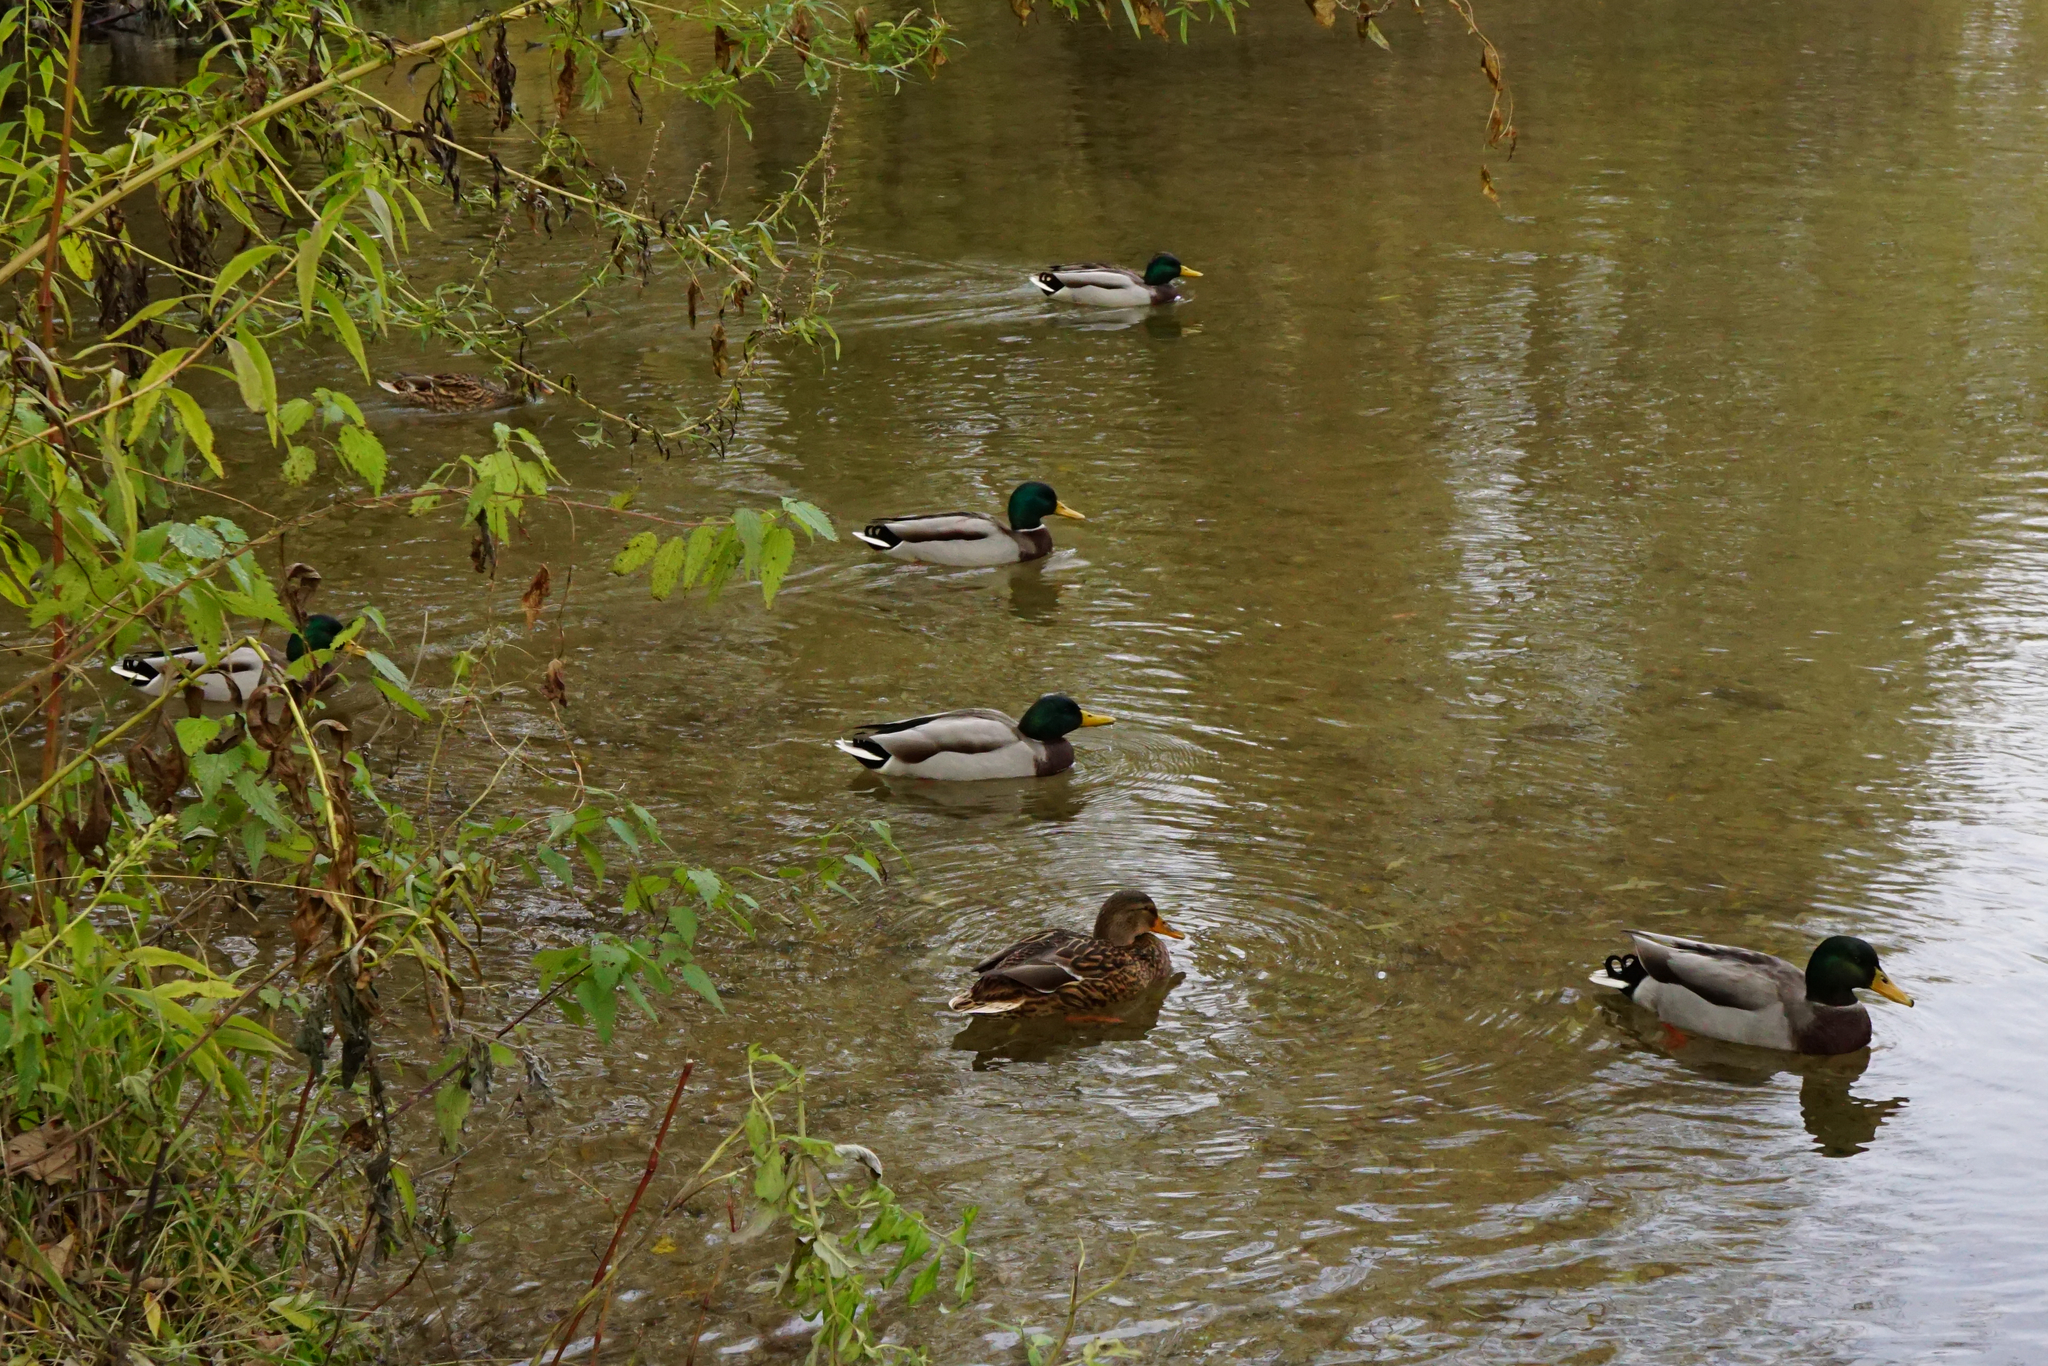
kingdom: Animalia
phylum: Chordata
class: Aves
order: Anseriformes
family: Anatidae
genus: Anas
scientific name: Anas platyrhynchos
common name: Mallard
